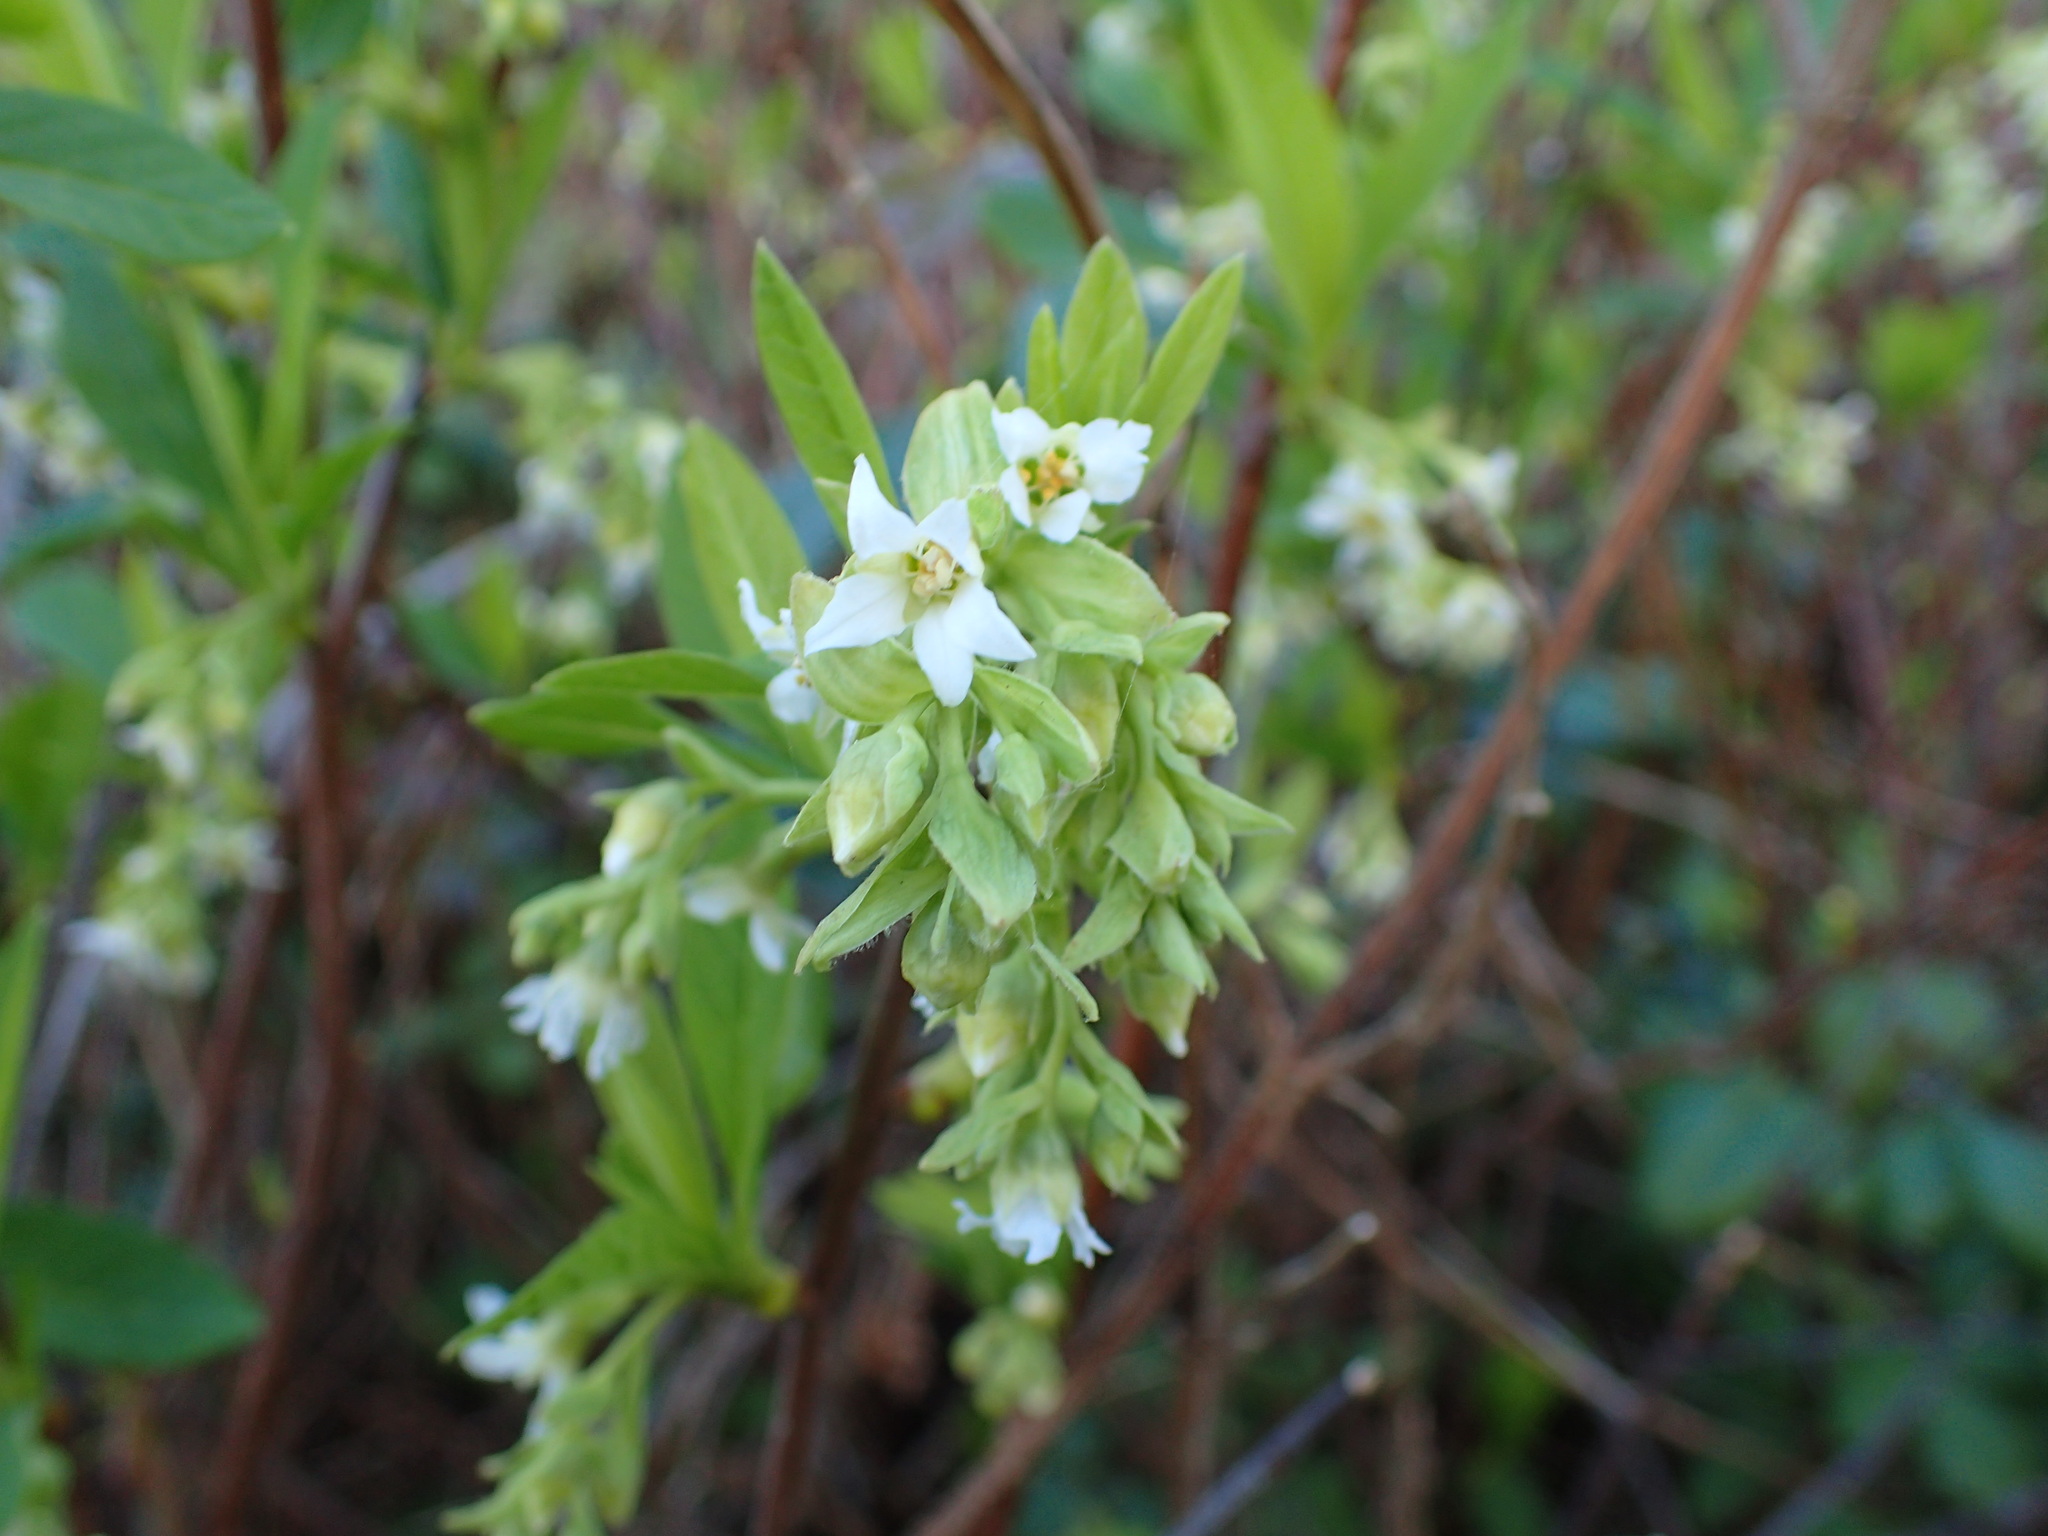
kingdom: Plantae
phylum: Tracheophyta
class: Magnoliopsida
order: Rosales
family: Rosaceae
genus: Oemleria
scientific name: Oemleria cerasiformis
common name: Osoberry
